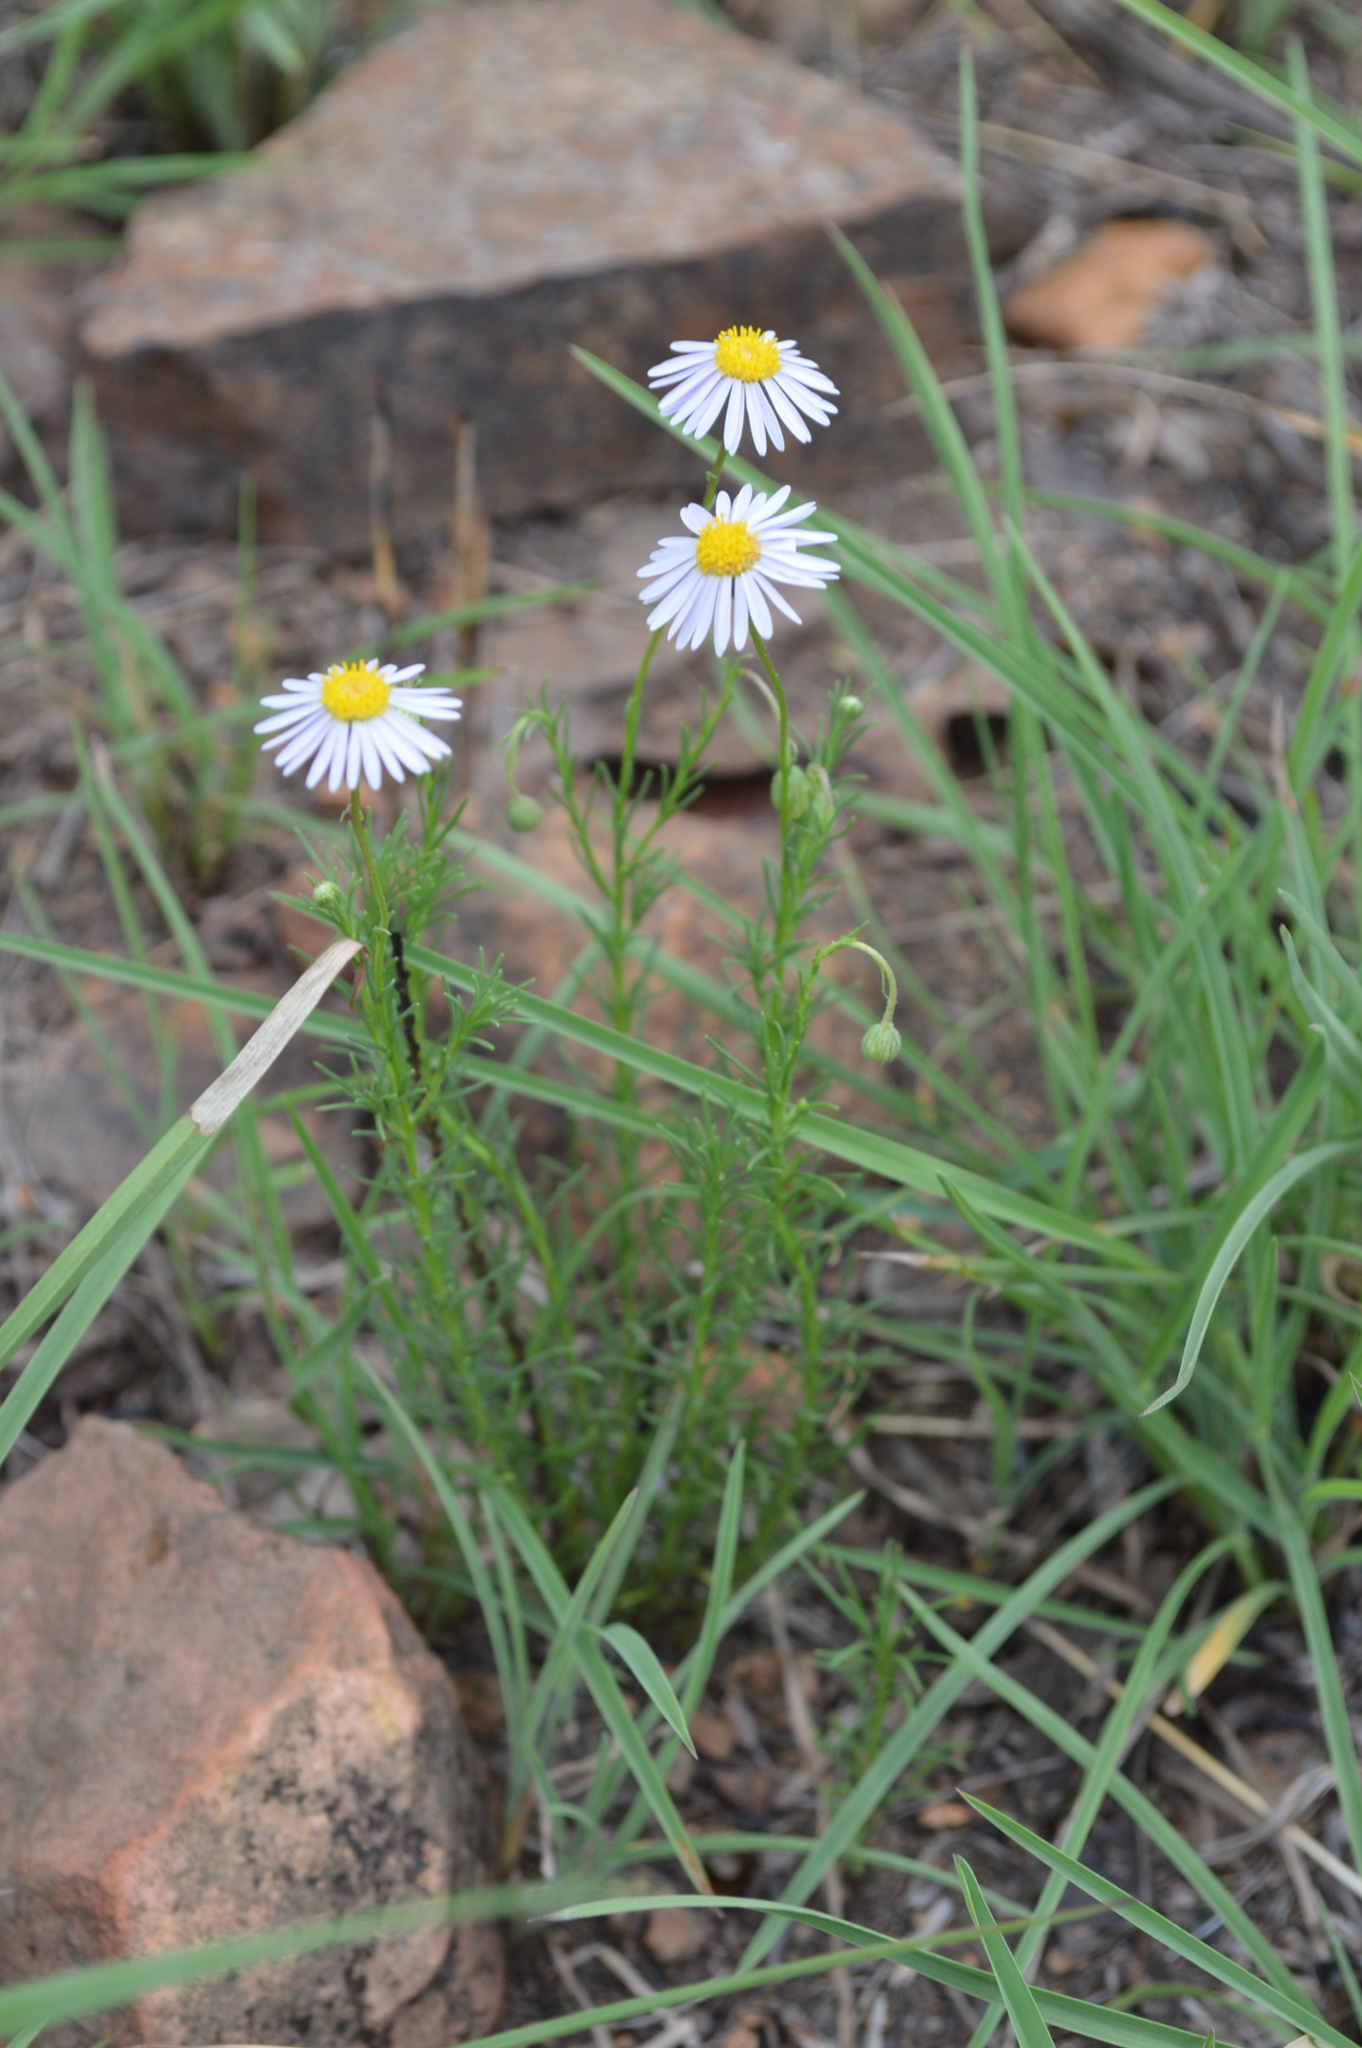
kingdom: Plantae
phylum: Tracheophyta
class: Magnoliopsida
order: Asterales
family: Asteraceae
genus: Felicia
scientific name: Felicia muricata
